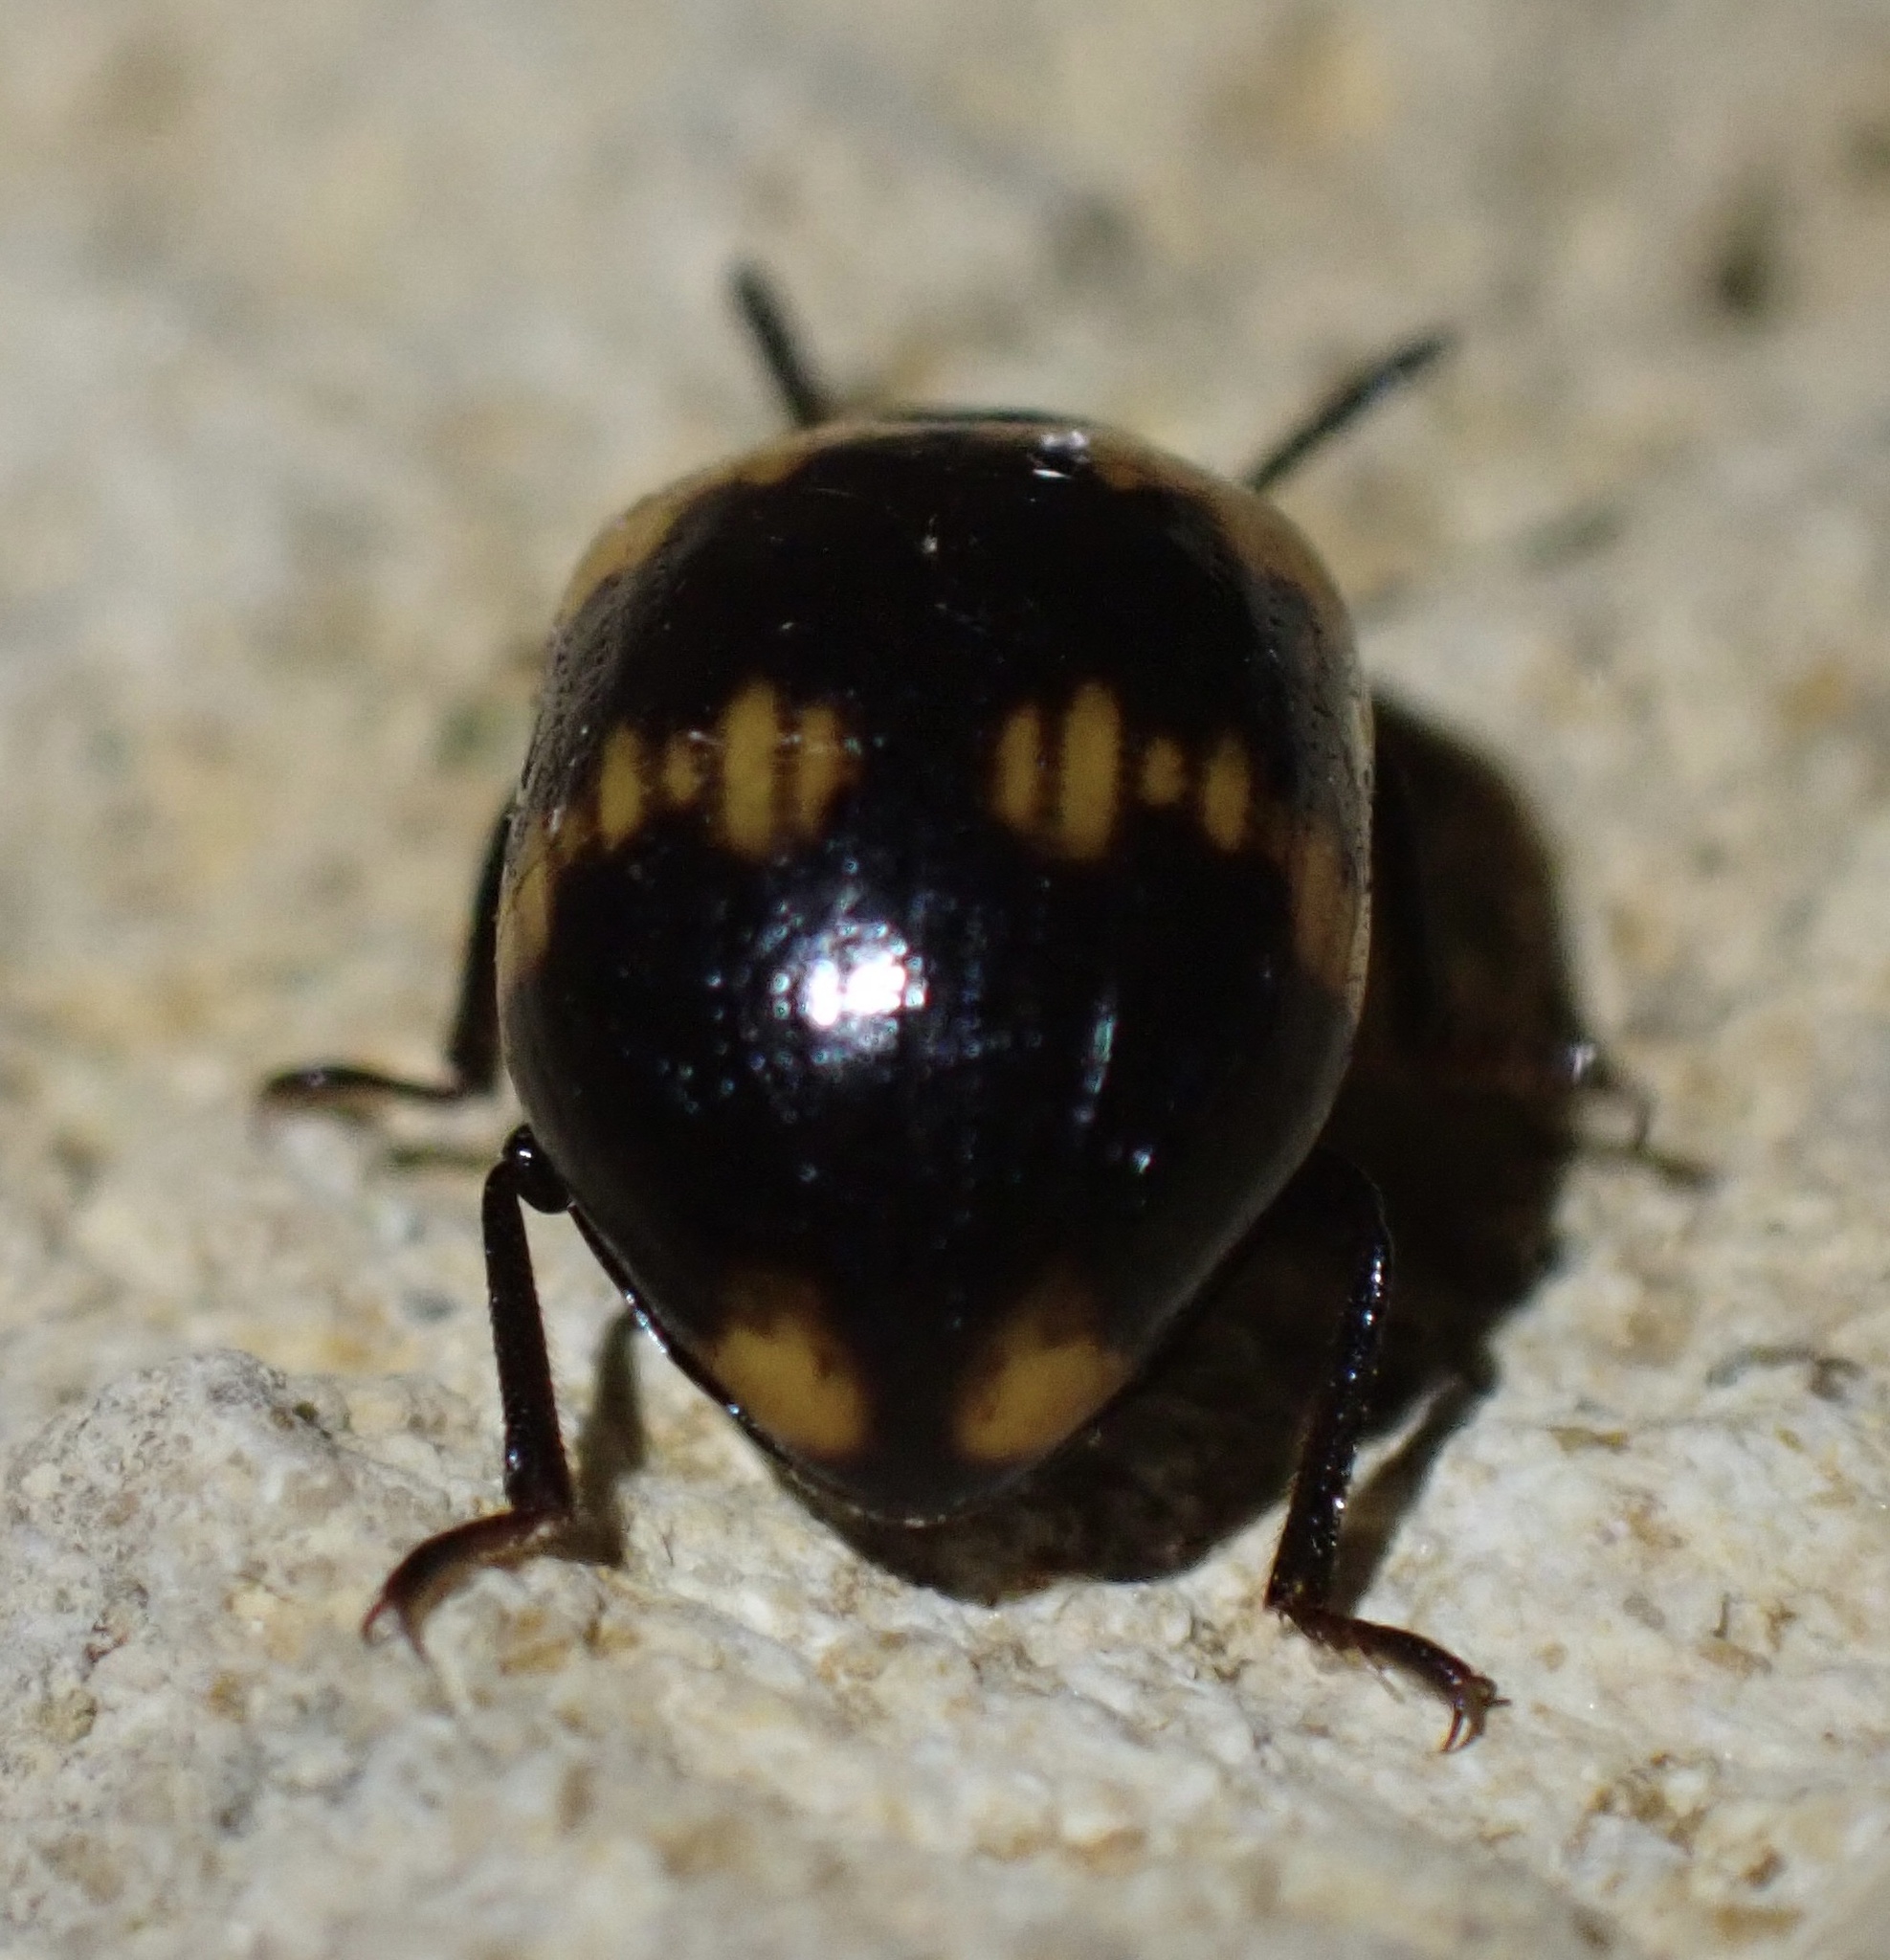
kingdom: Animalia
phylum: Arthropoda
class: Insecta
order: Coleoptera
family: Tenebrionidae
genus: Diaperis
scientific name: Diaperis boleti
